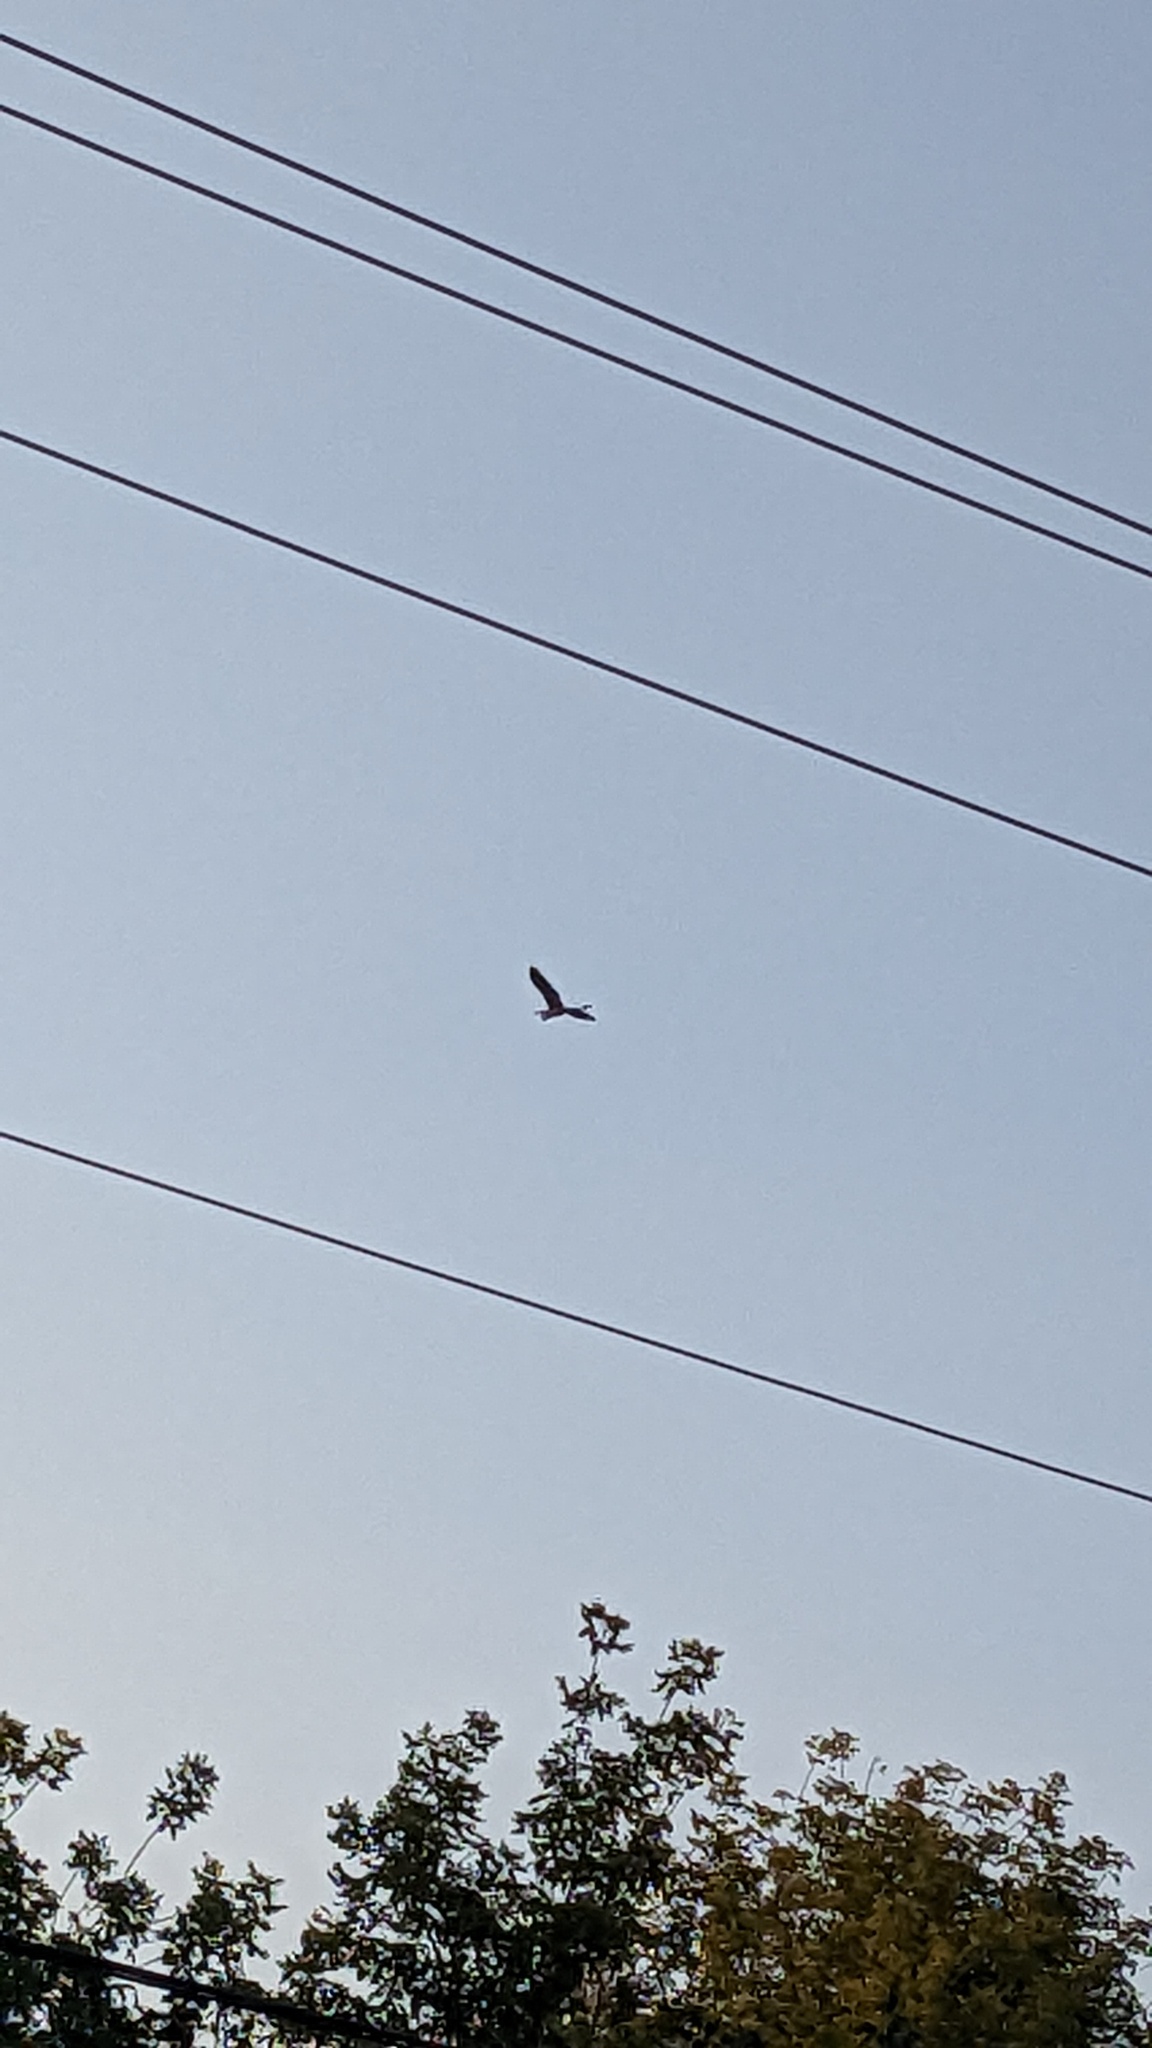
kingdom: Animalia
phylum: Chordata
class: Aves
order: Pelecaniformes
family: Ardeidae
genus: Ardea
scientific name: Ardea herodias
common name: Great blue heron
